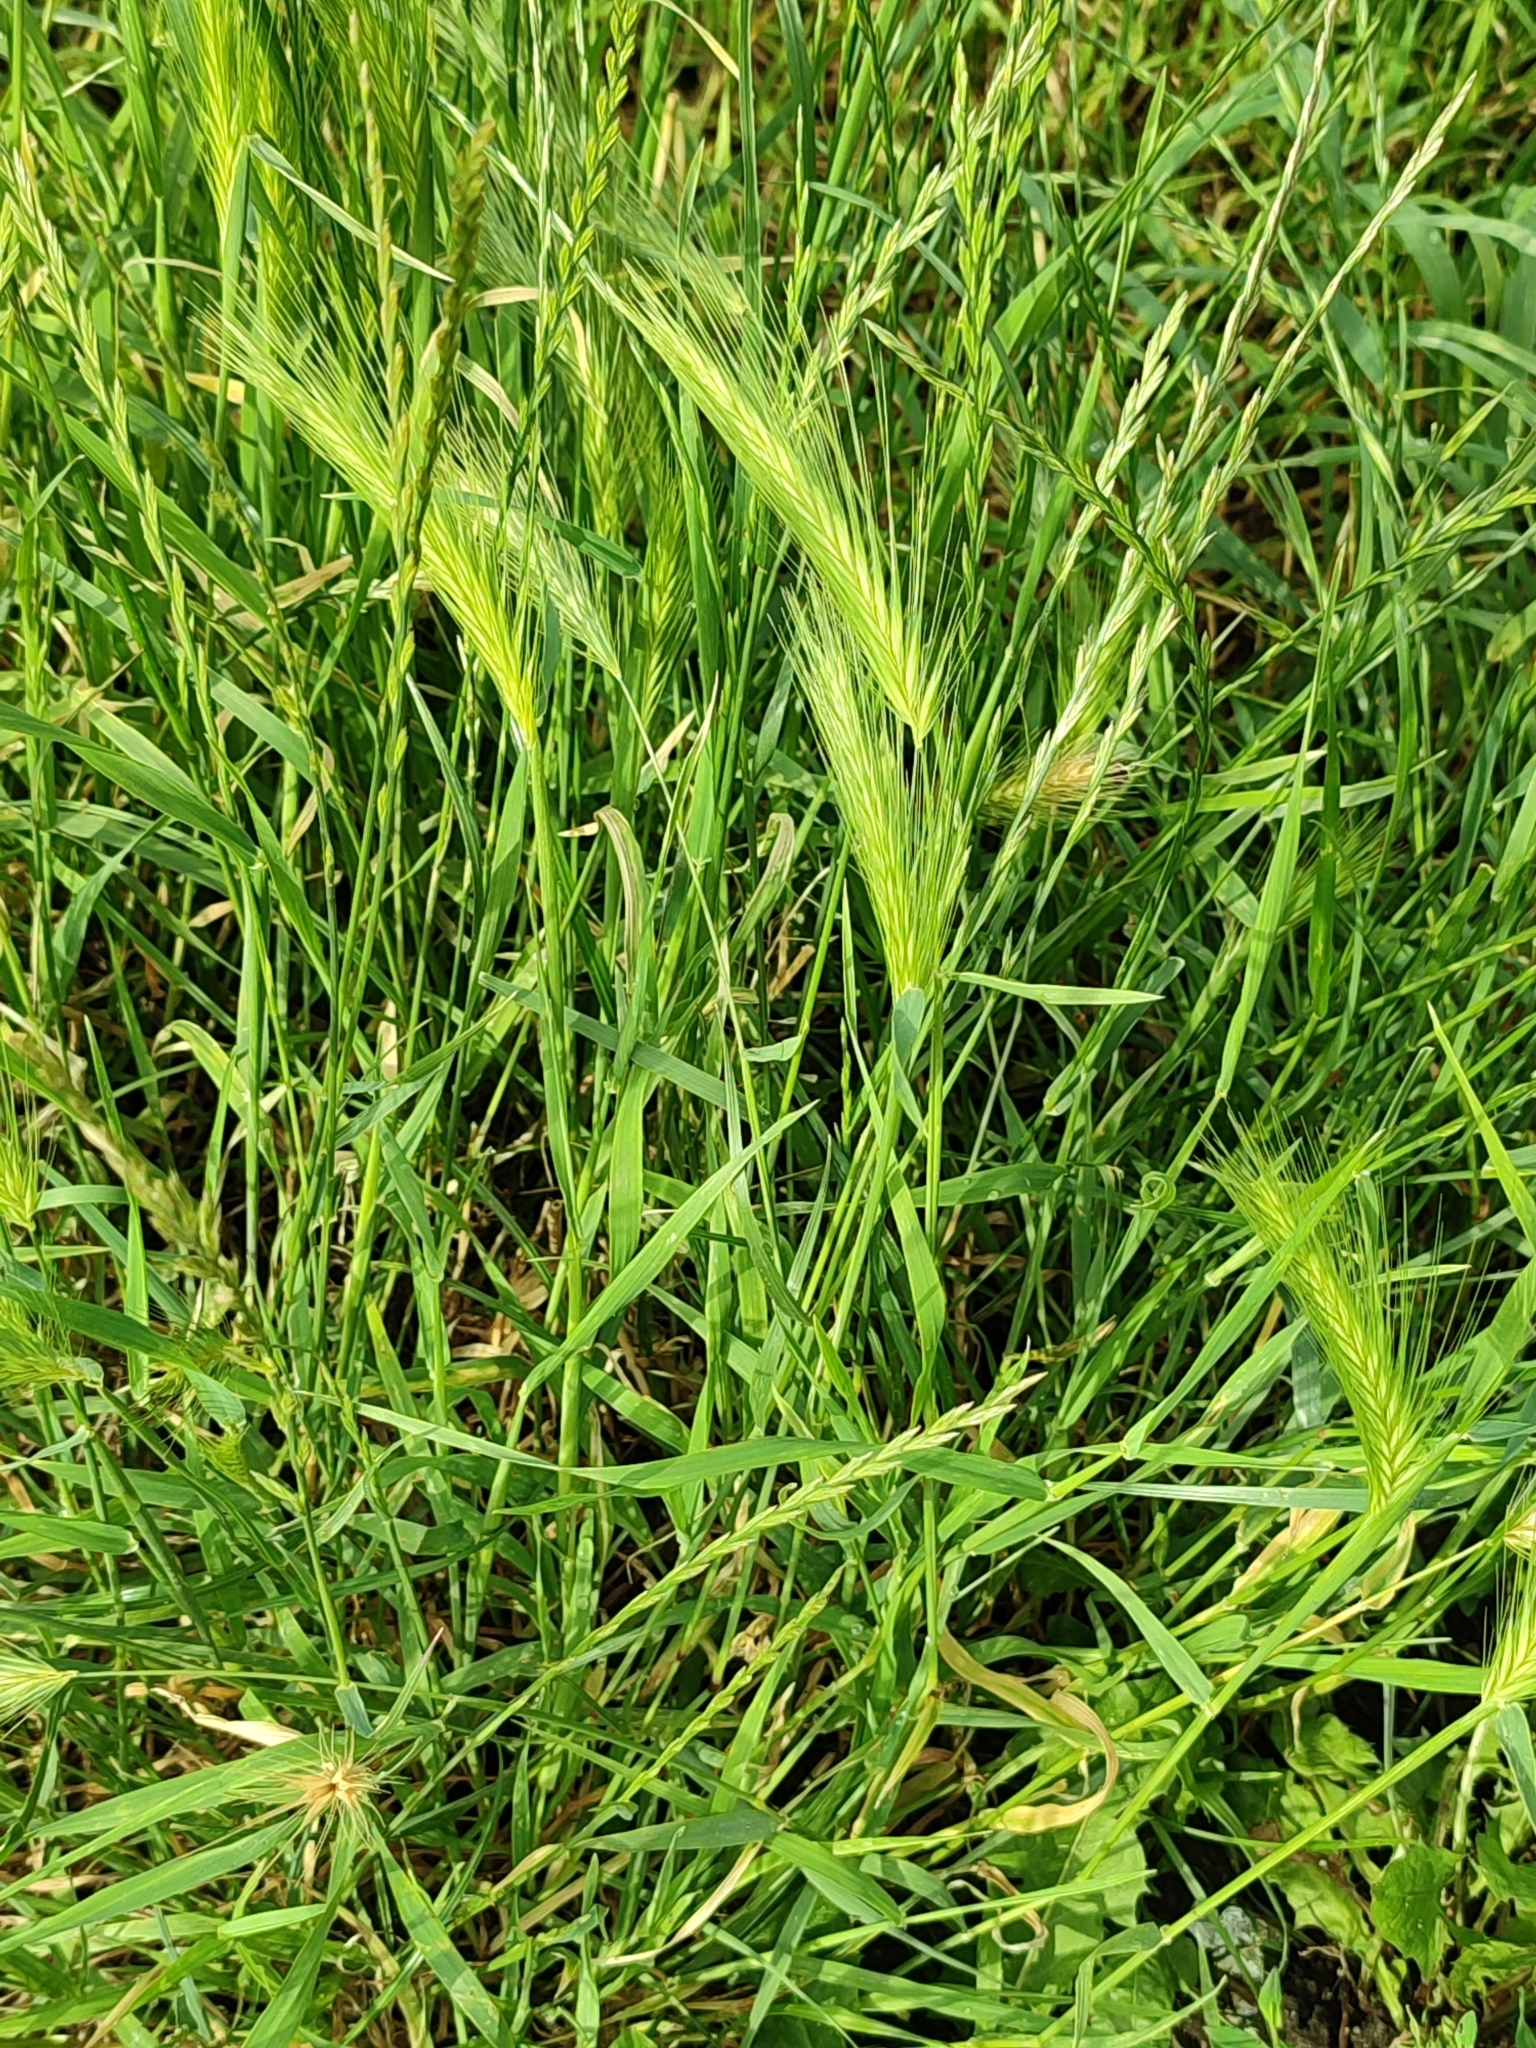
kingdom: Plantae
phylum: Tracheophyta
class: Liliopsida
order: Poales
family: Poaceae
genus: Hordeum
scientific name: Hordeum murinum
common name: Wall barley
